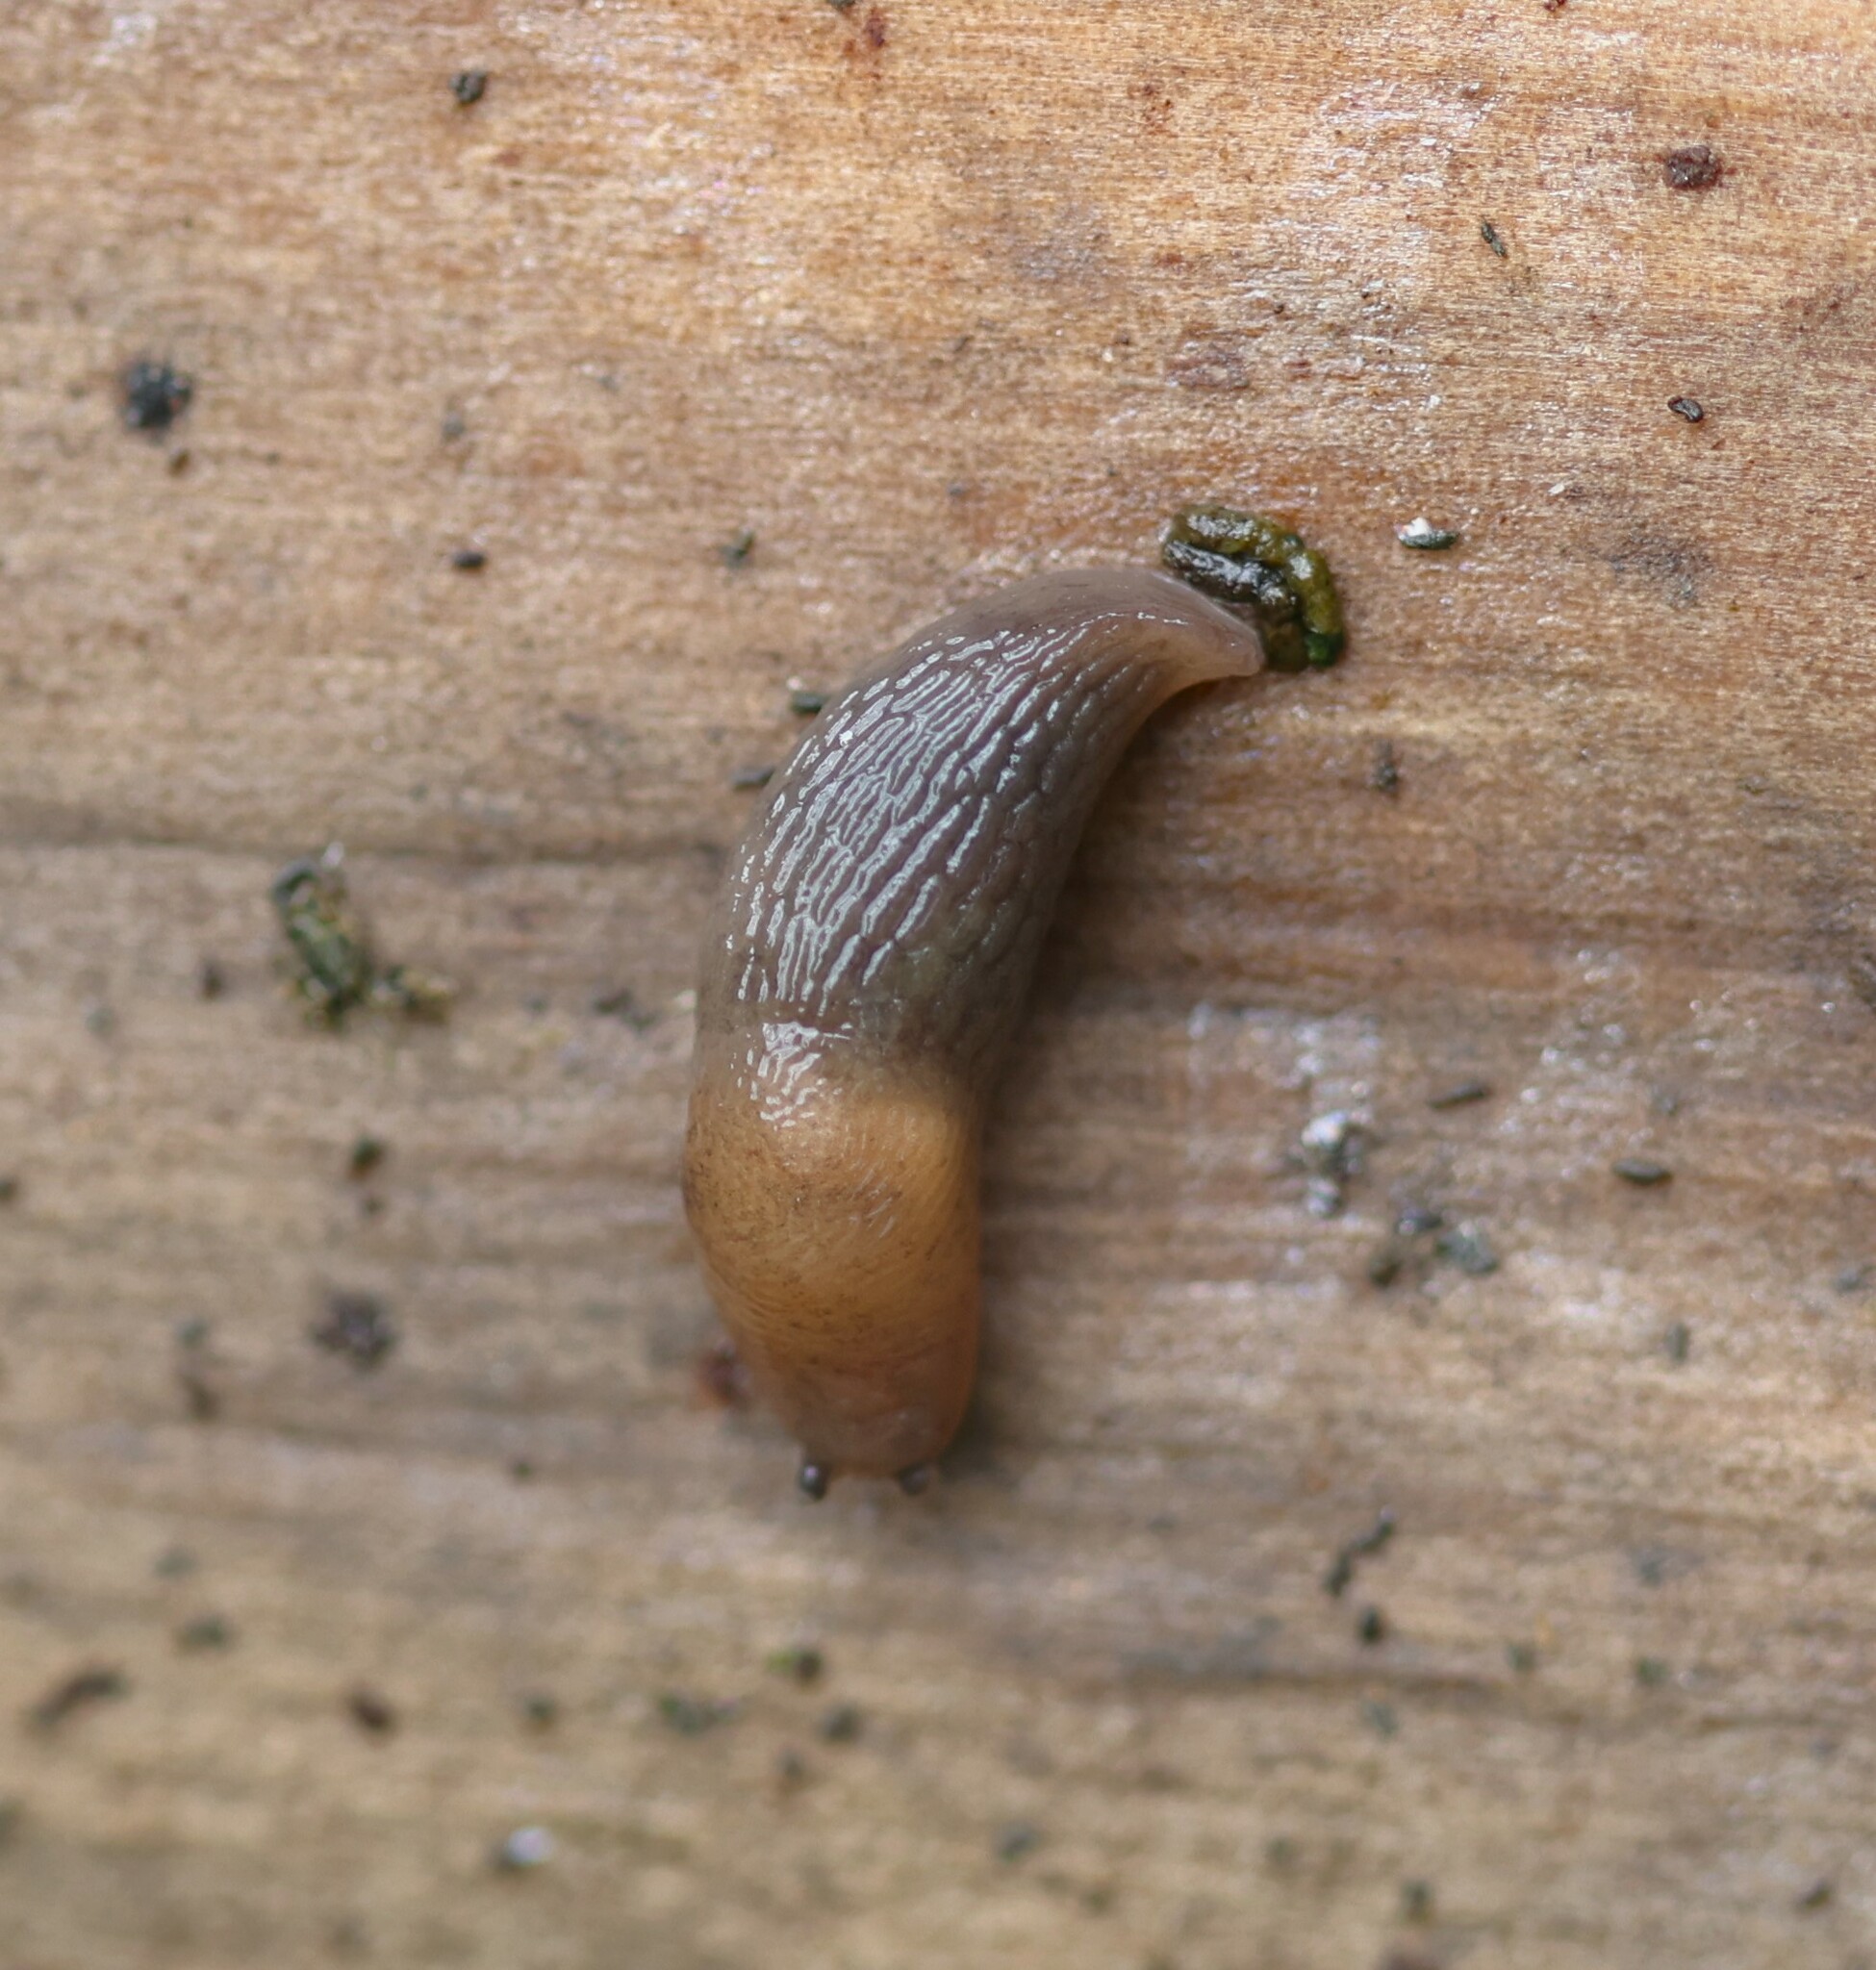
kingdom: Animalia
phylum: Mollusca
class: Gastropoda
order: Stylommatophora
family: Agriolimacidae
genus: Deroceras
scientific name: Deroceras invadens
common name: Caruana's slug
